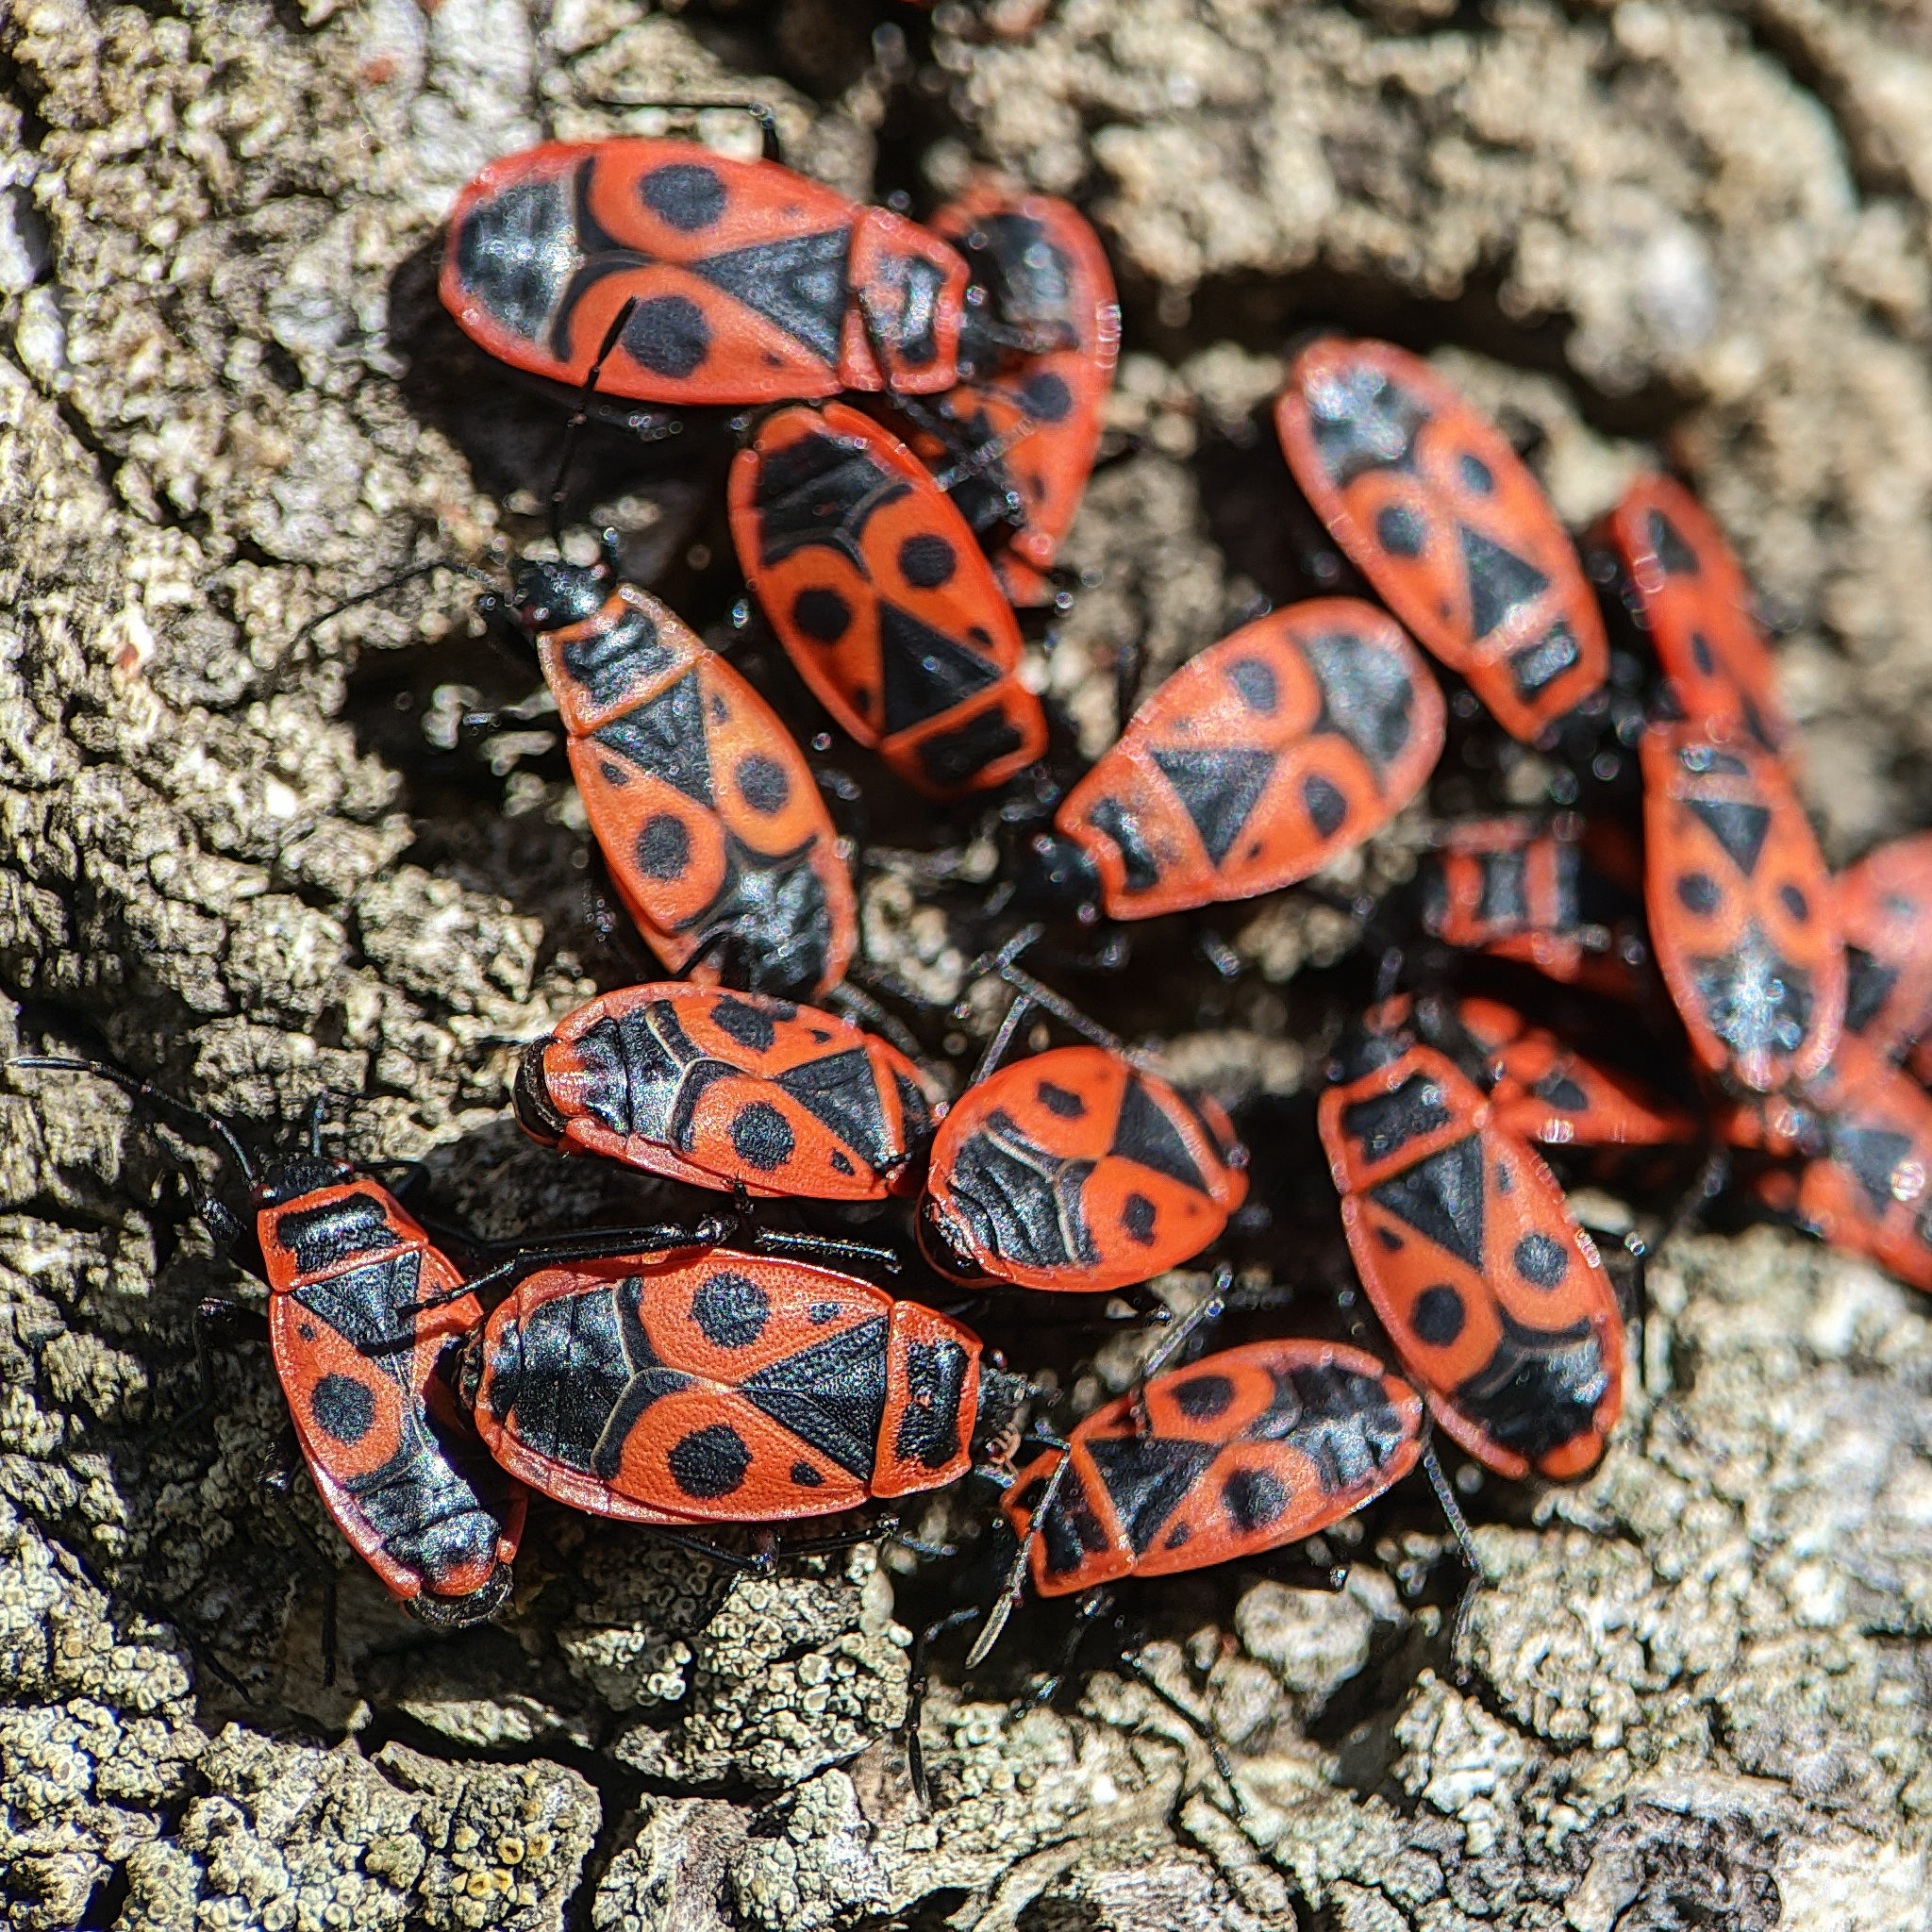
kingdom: Animalia
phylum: Arthropoda
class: Insecta
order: Hemiptera
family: Pyrrhocoridae
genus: Pyrrhocoris
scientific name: Pyrrhocoris apterus
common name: Firebug
